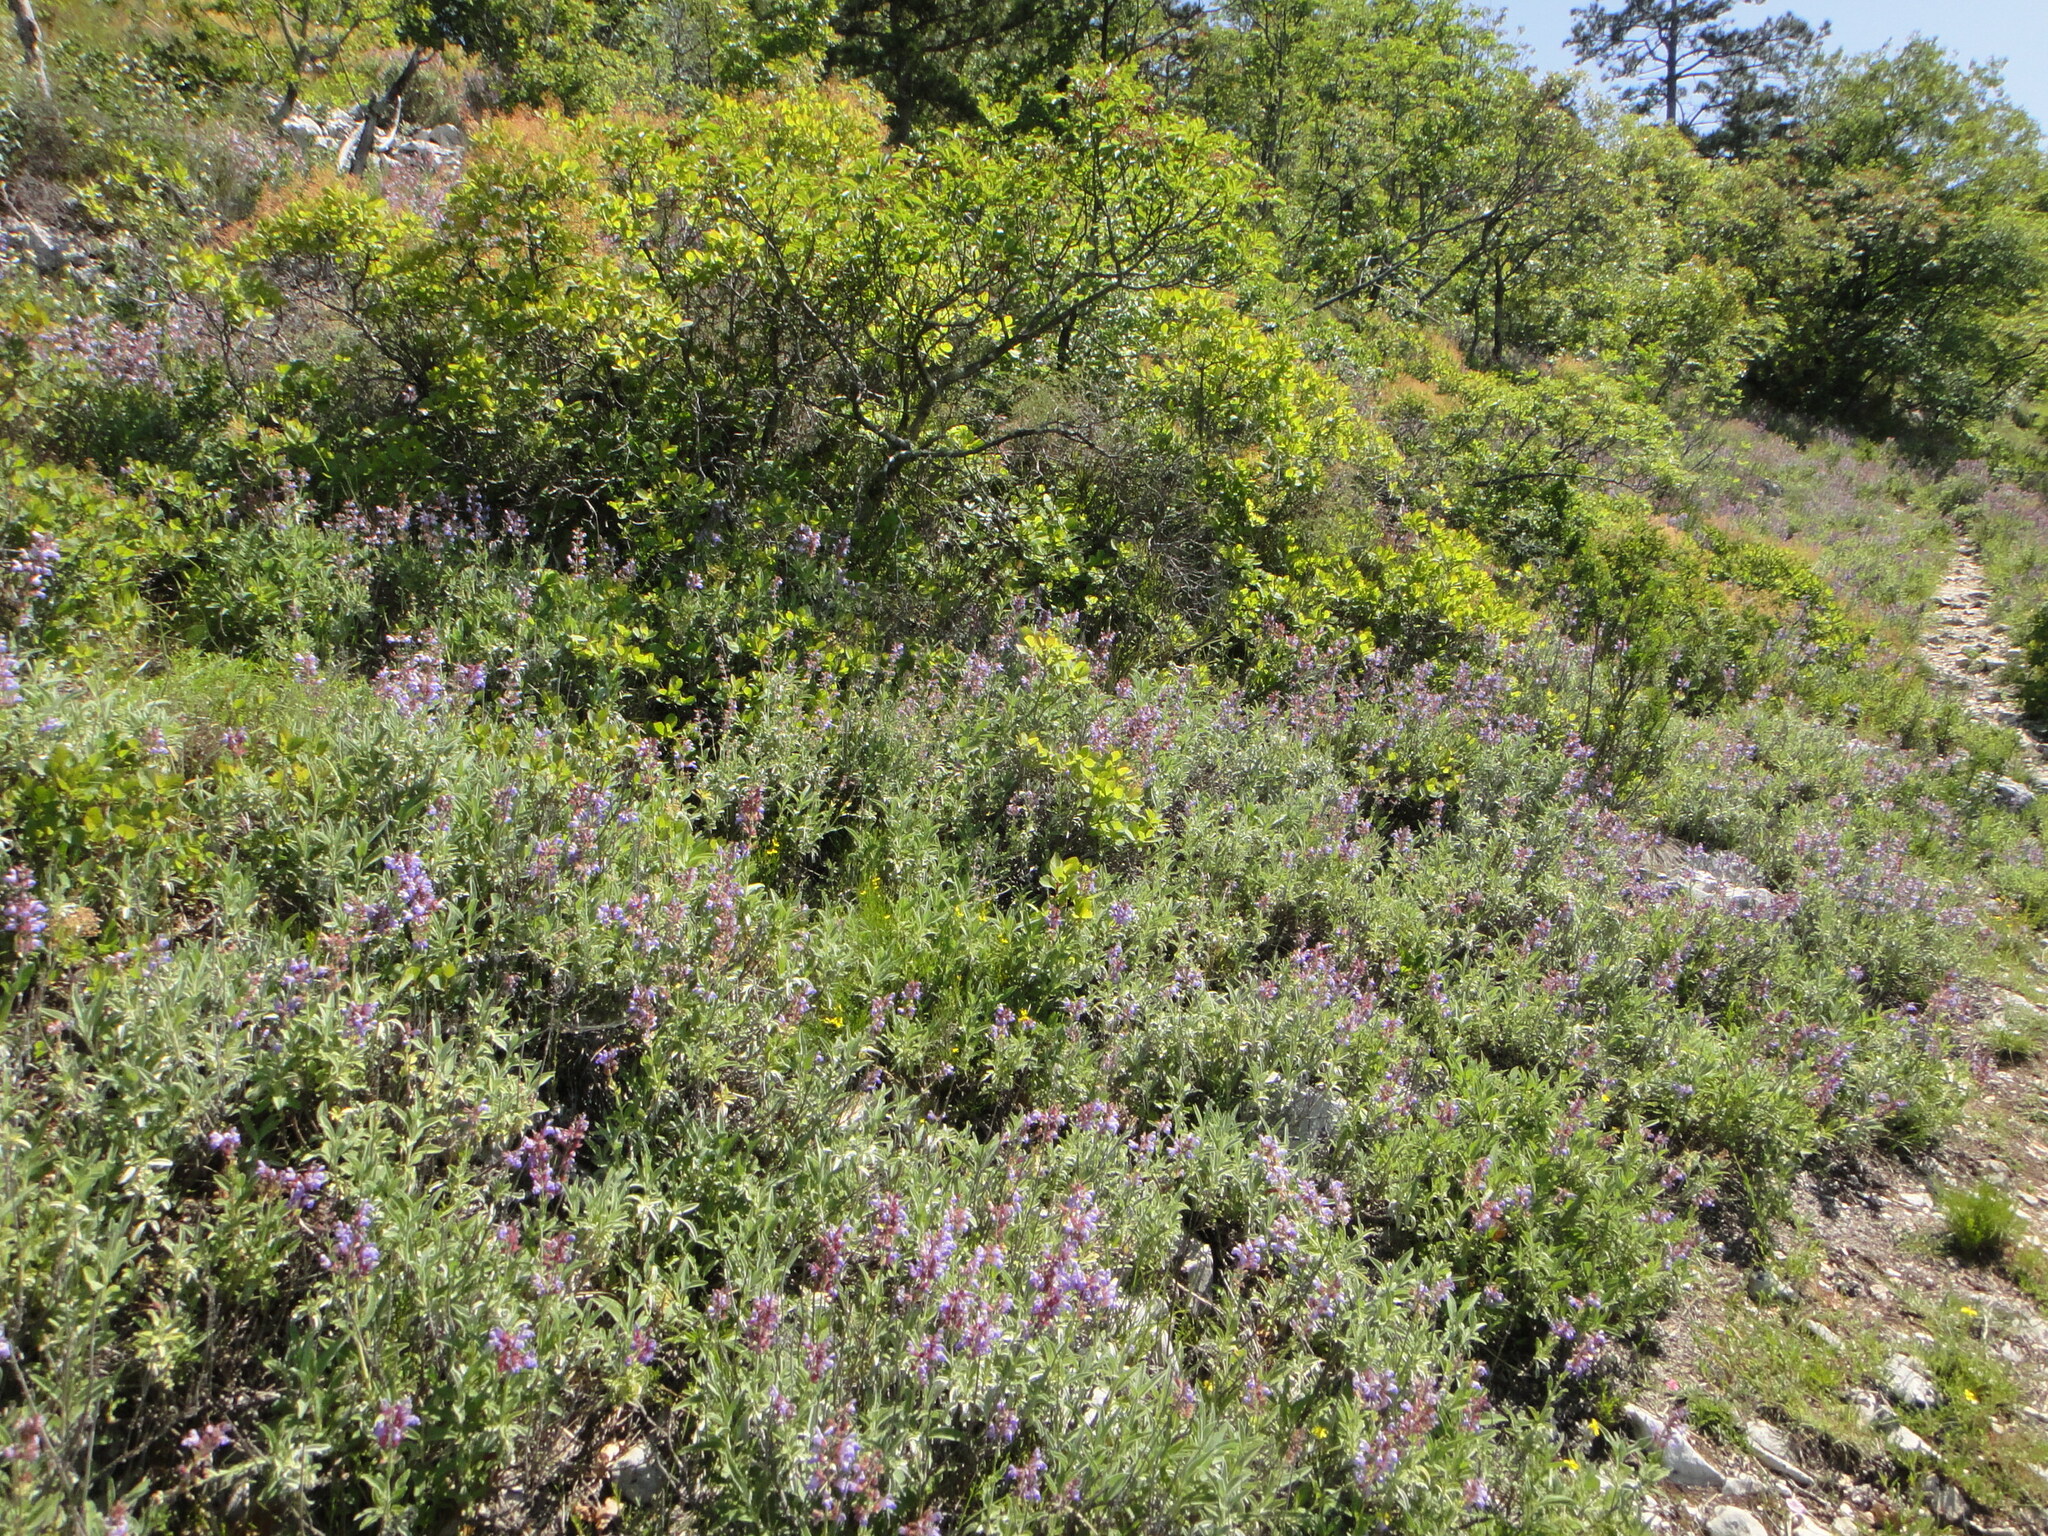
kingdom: Plantae
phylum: Tracheophyta
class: Magnoliopsida
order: Lamiales
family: Lamiaceae
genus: Salvia
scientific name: Salvia officinalis
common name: Sage
